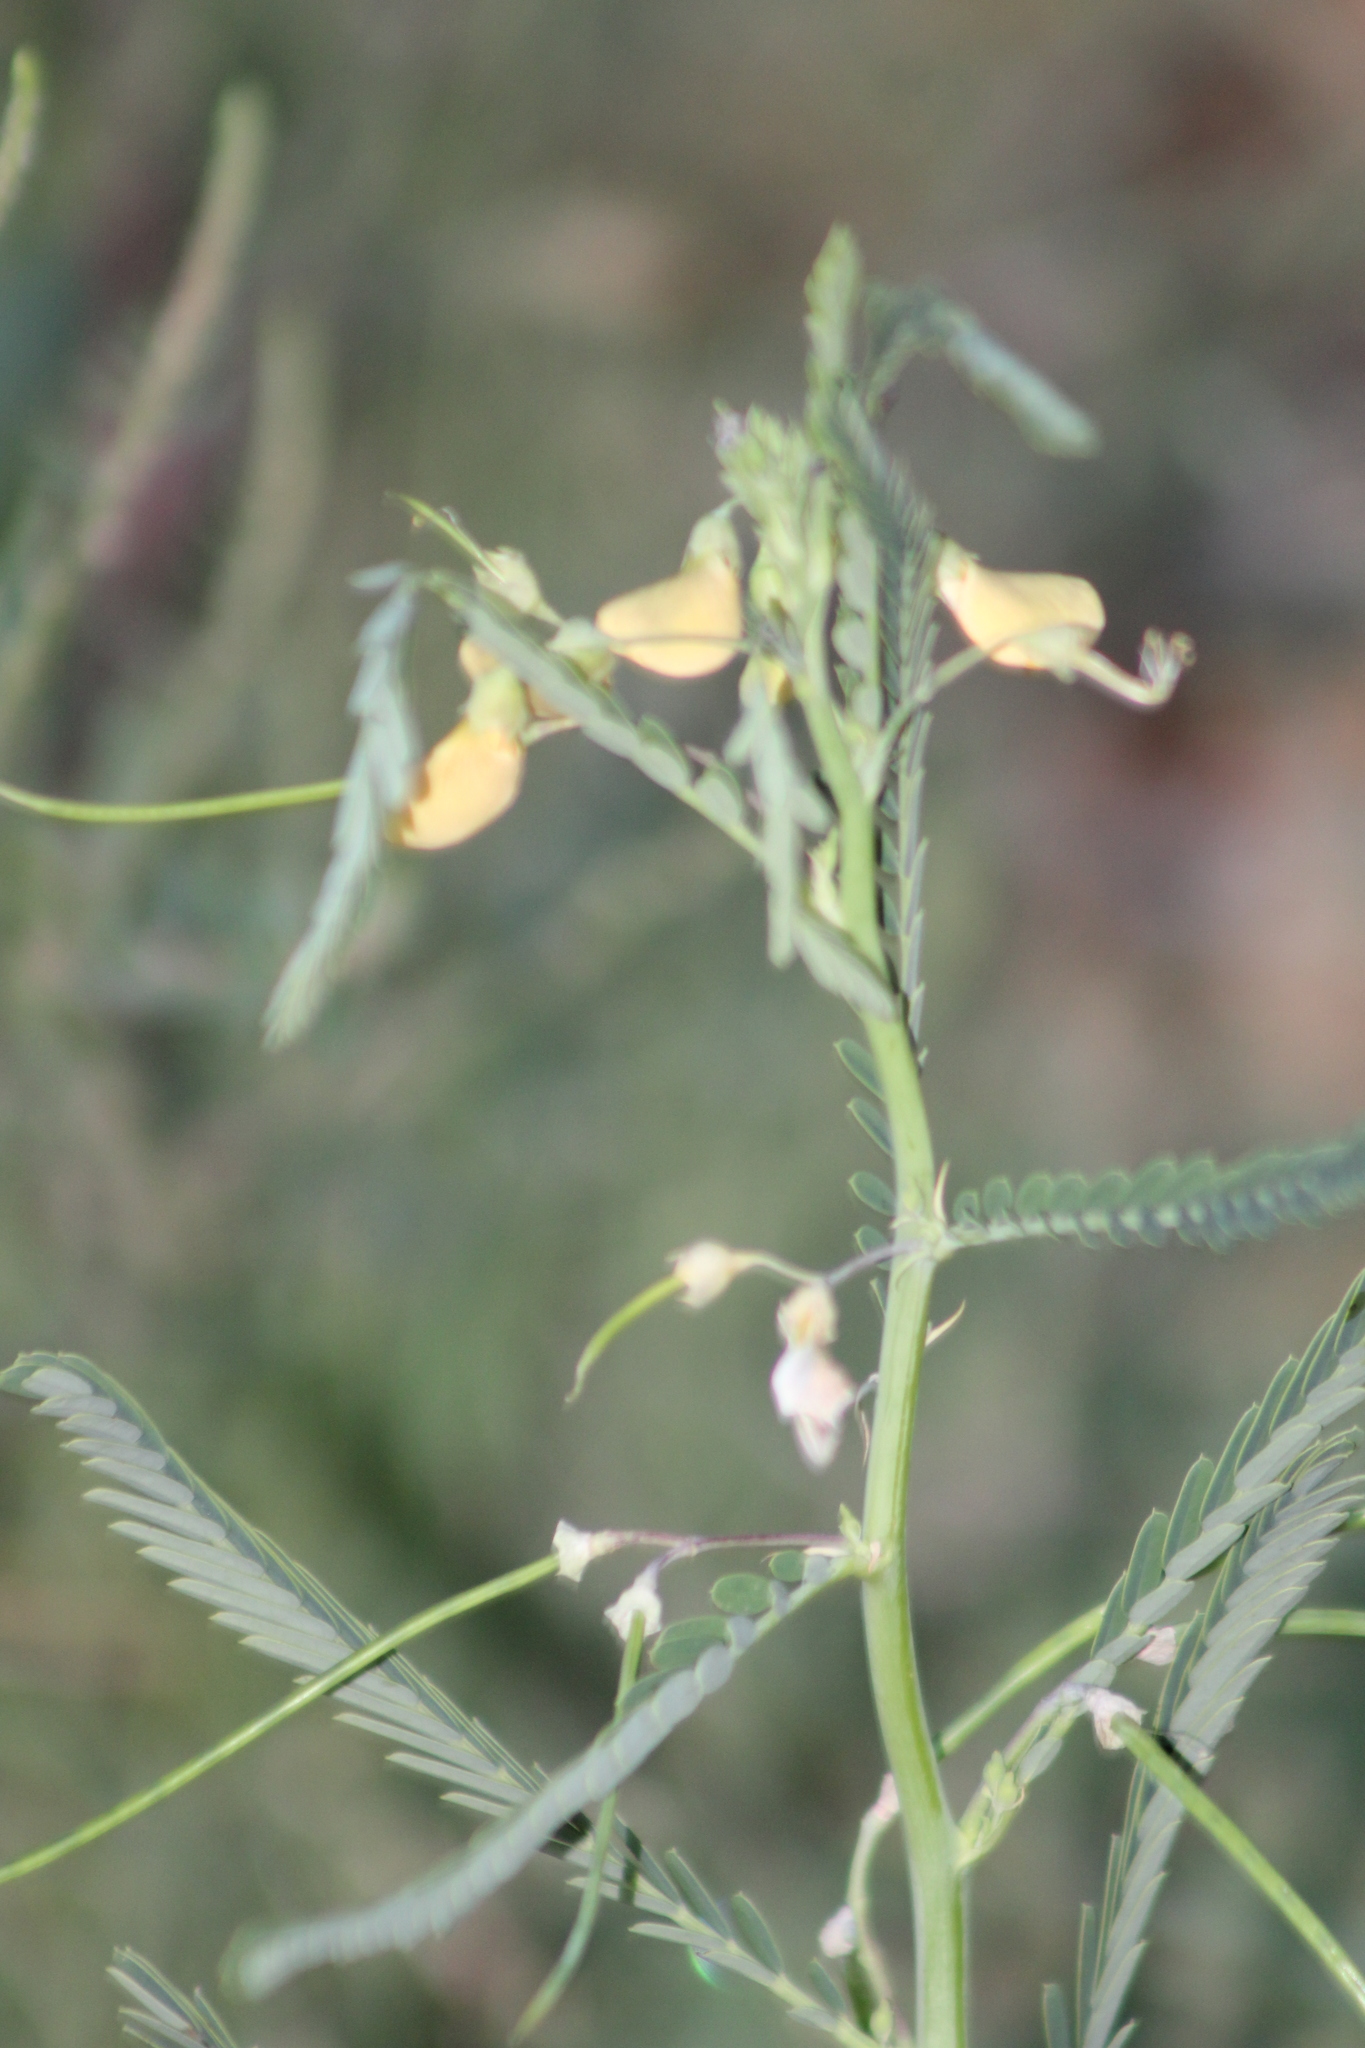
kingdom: Plantae
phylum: Tracheophyta
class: Magnoliopsida
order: Fabales
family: Fabaceae
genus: Sesbania
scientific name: Sesbania herbacea
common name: Bigpod sesbania
